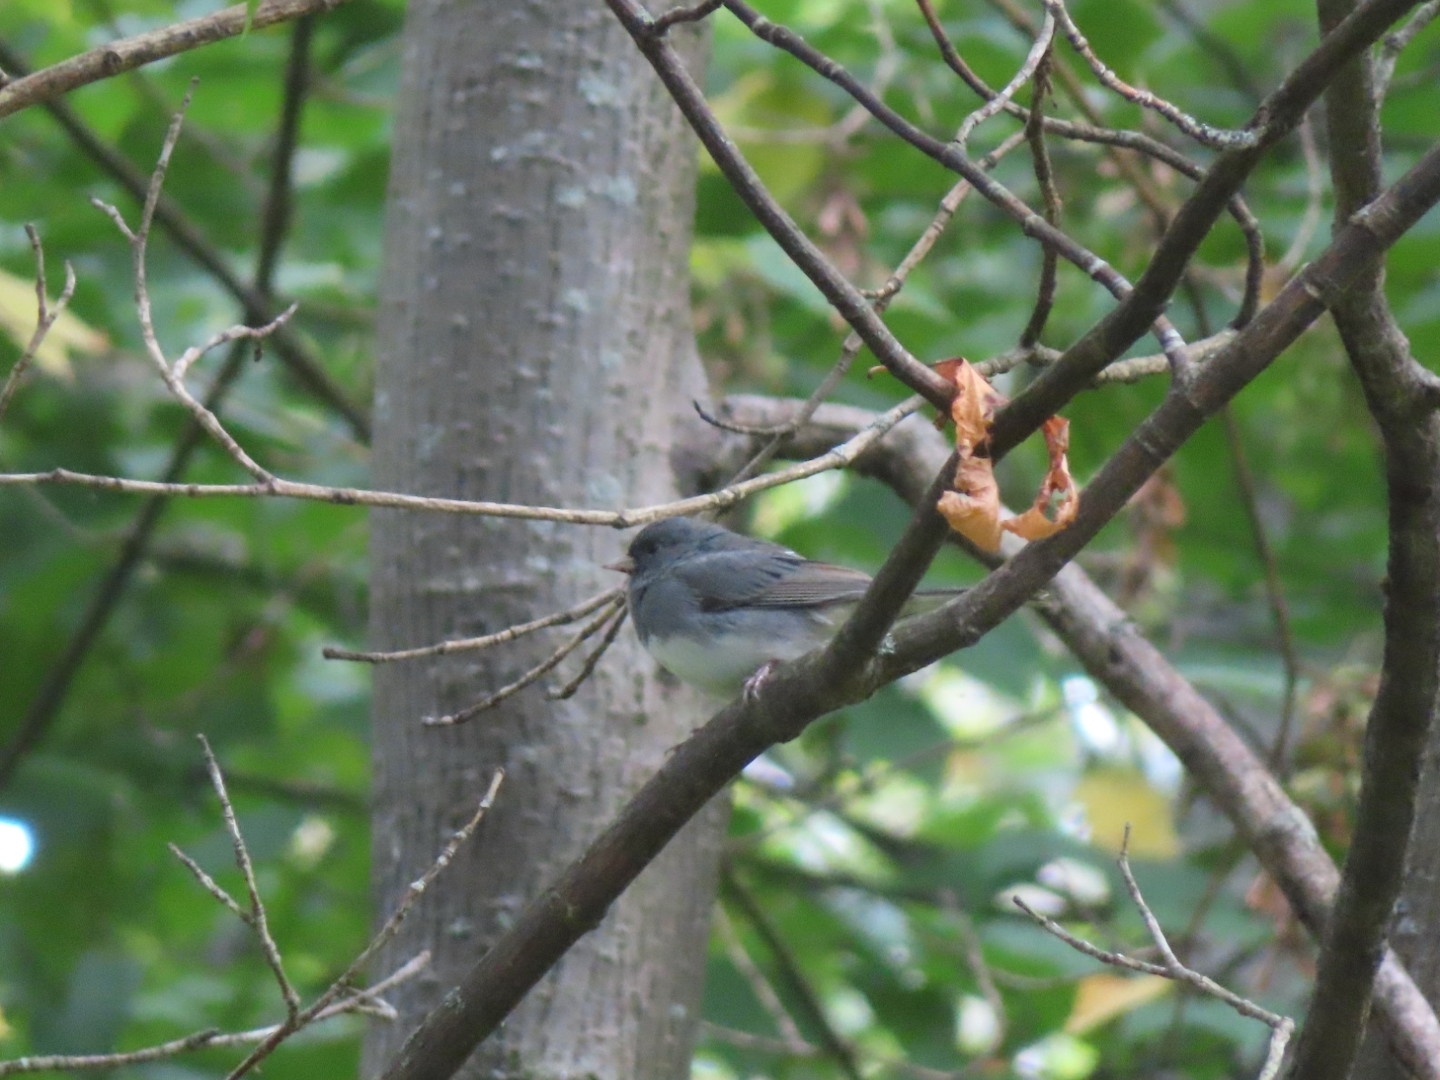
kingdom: Animalia
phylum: Chordata
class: Aves
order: Passeriformes
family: Passerellidae
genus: Junco
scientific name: Junco hyemalis
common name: Dark-eyed junco
